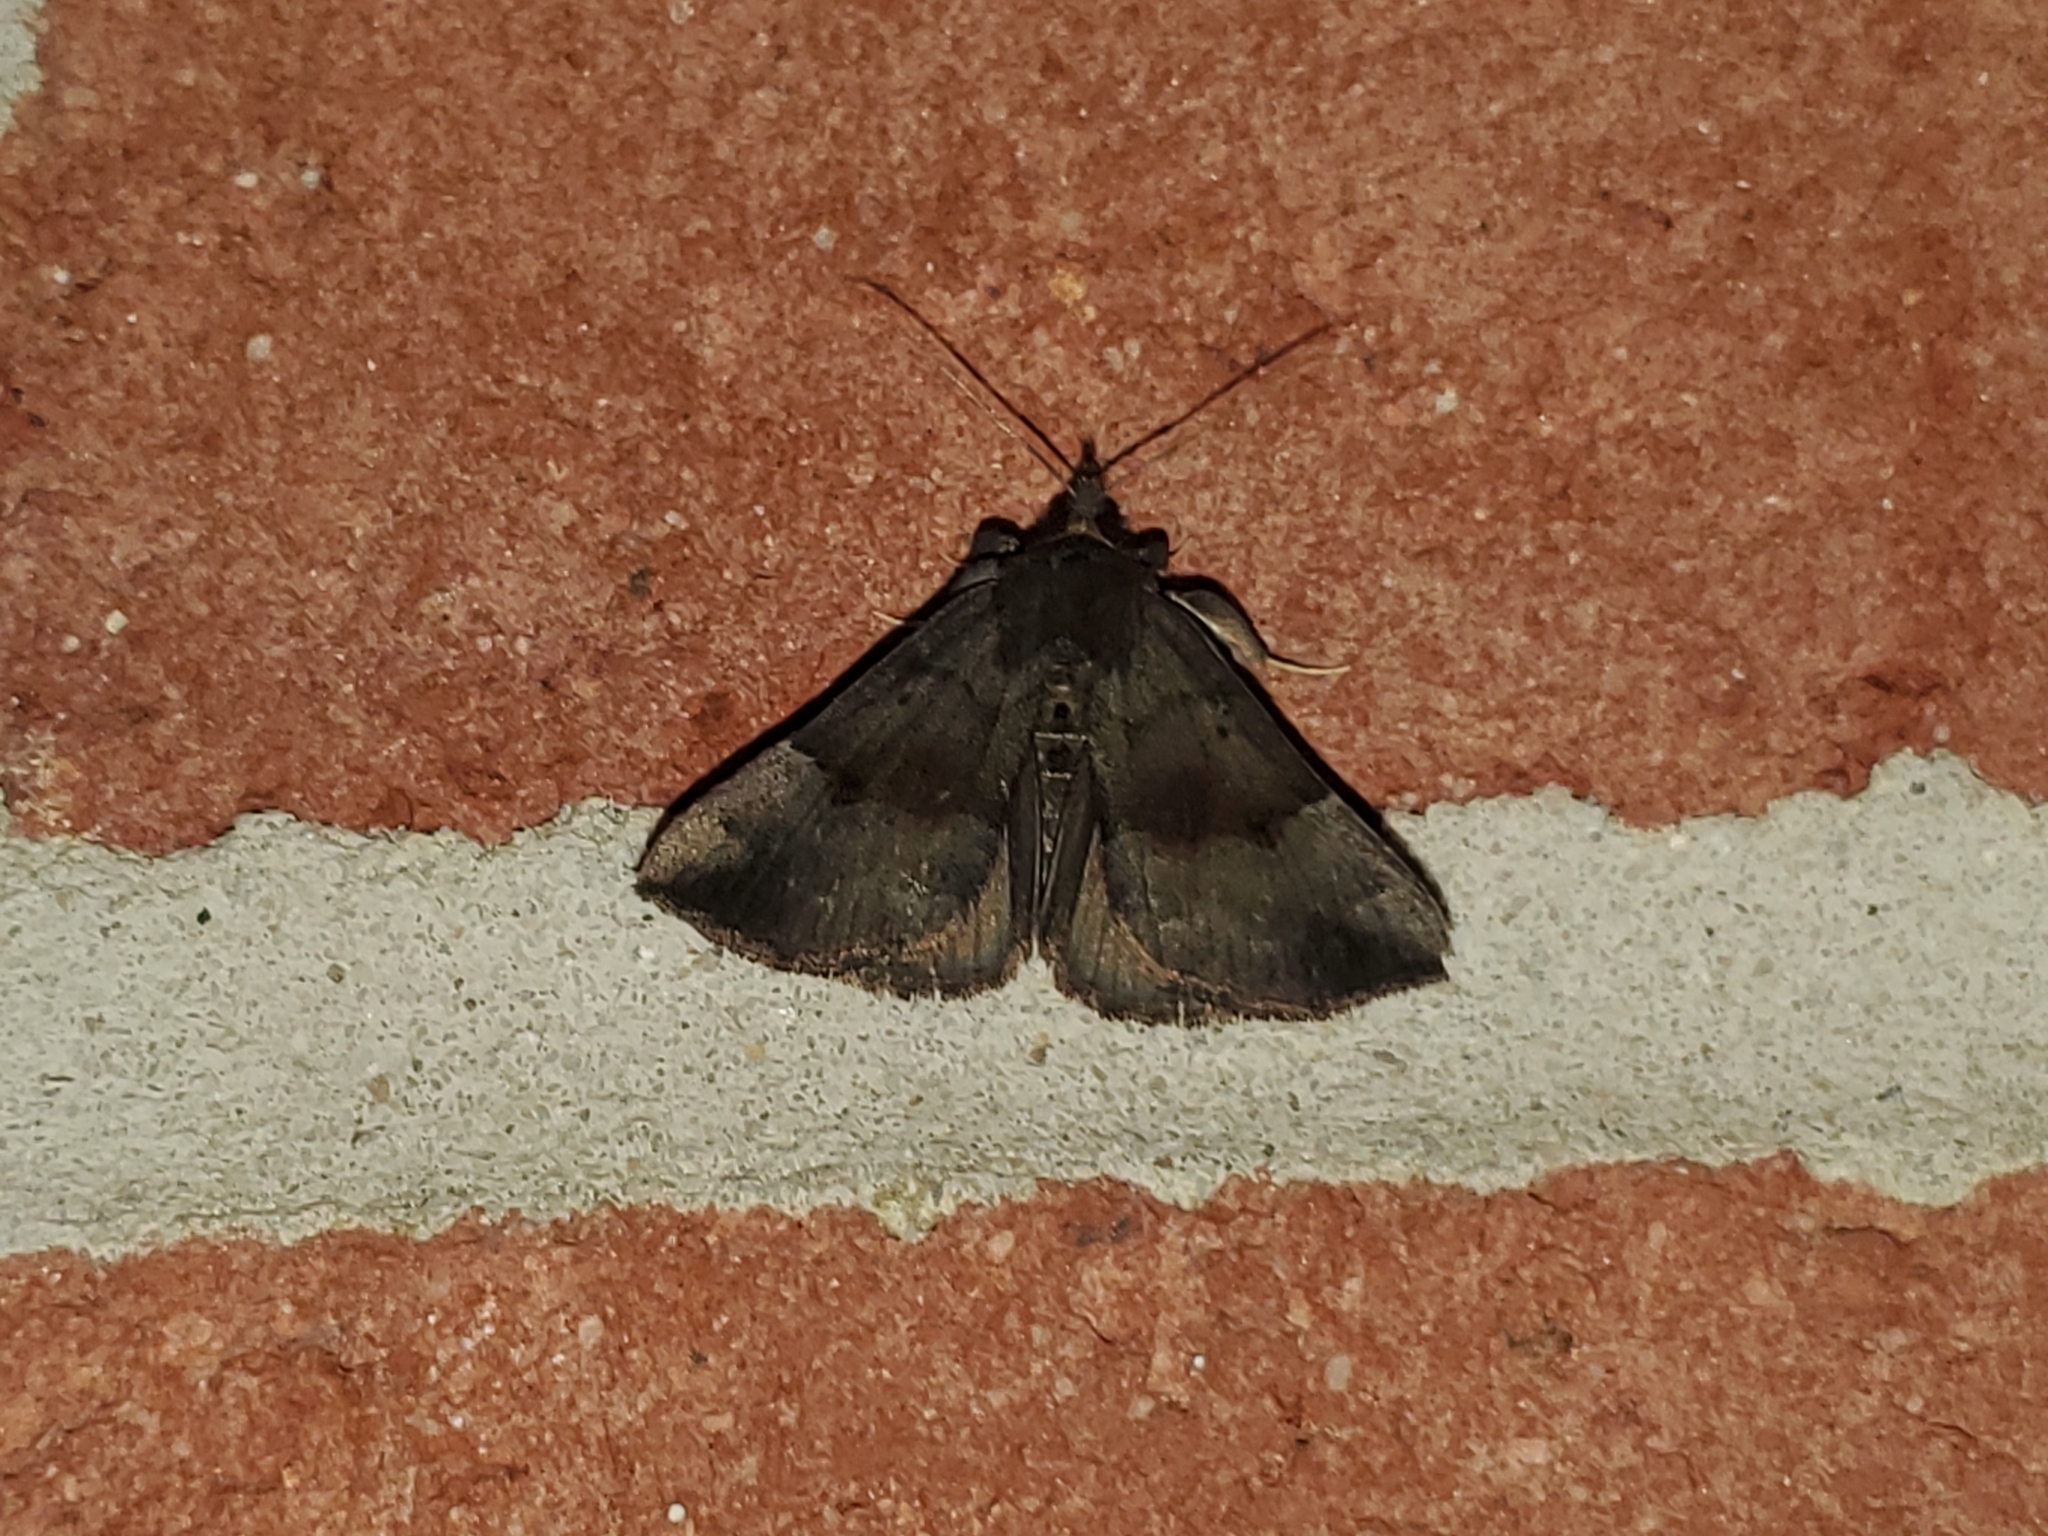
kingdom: Animalia
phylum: Arthropoda
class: Insecta
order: Lepidoptera
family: Erebidae
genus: Hypena
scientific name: Hypena madefactalis
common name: Gray-edged snout
